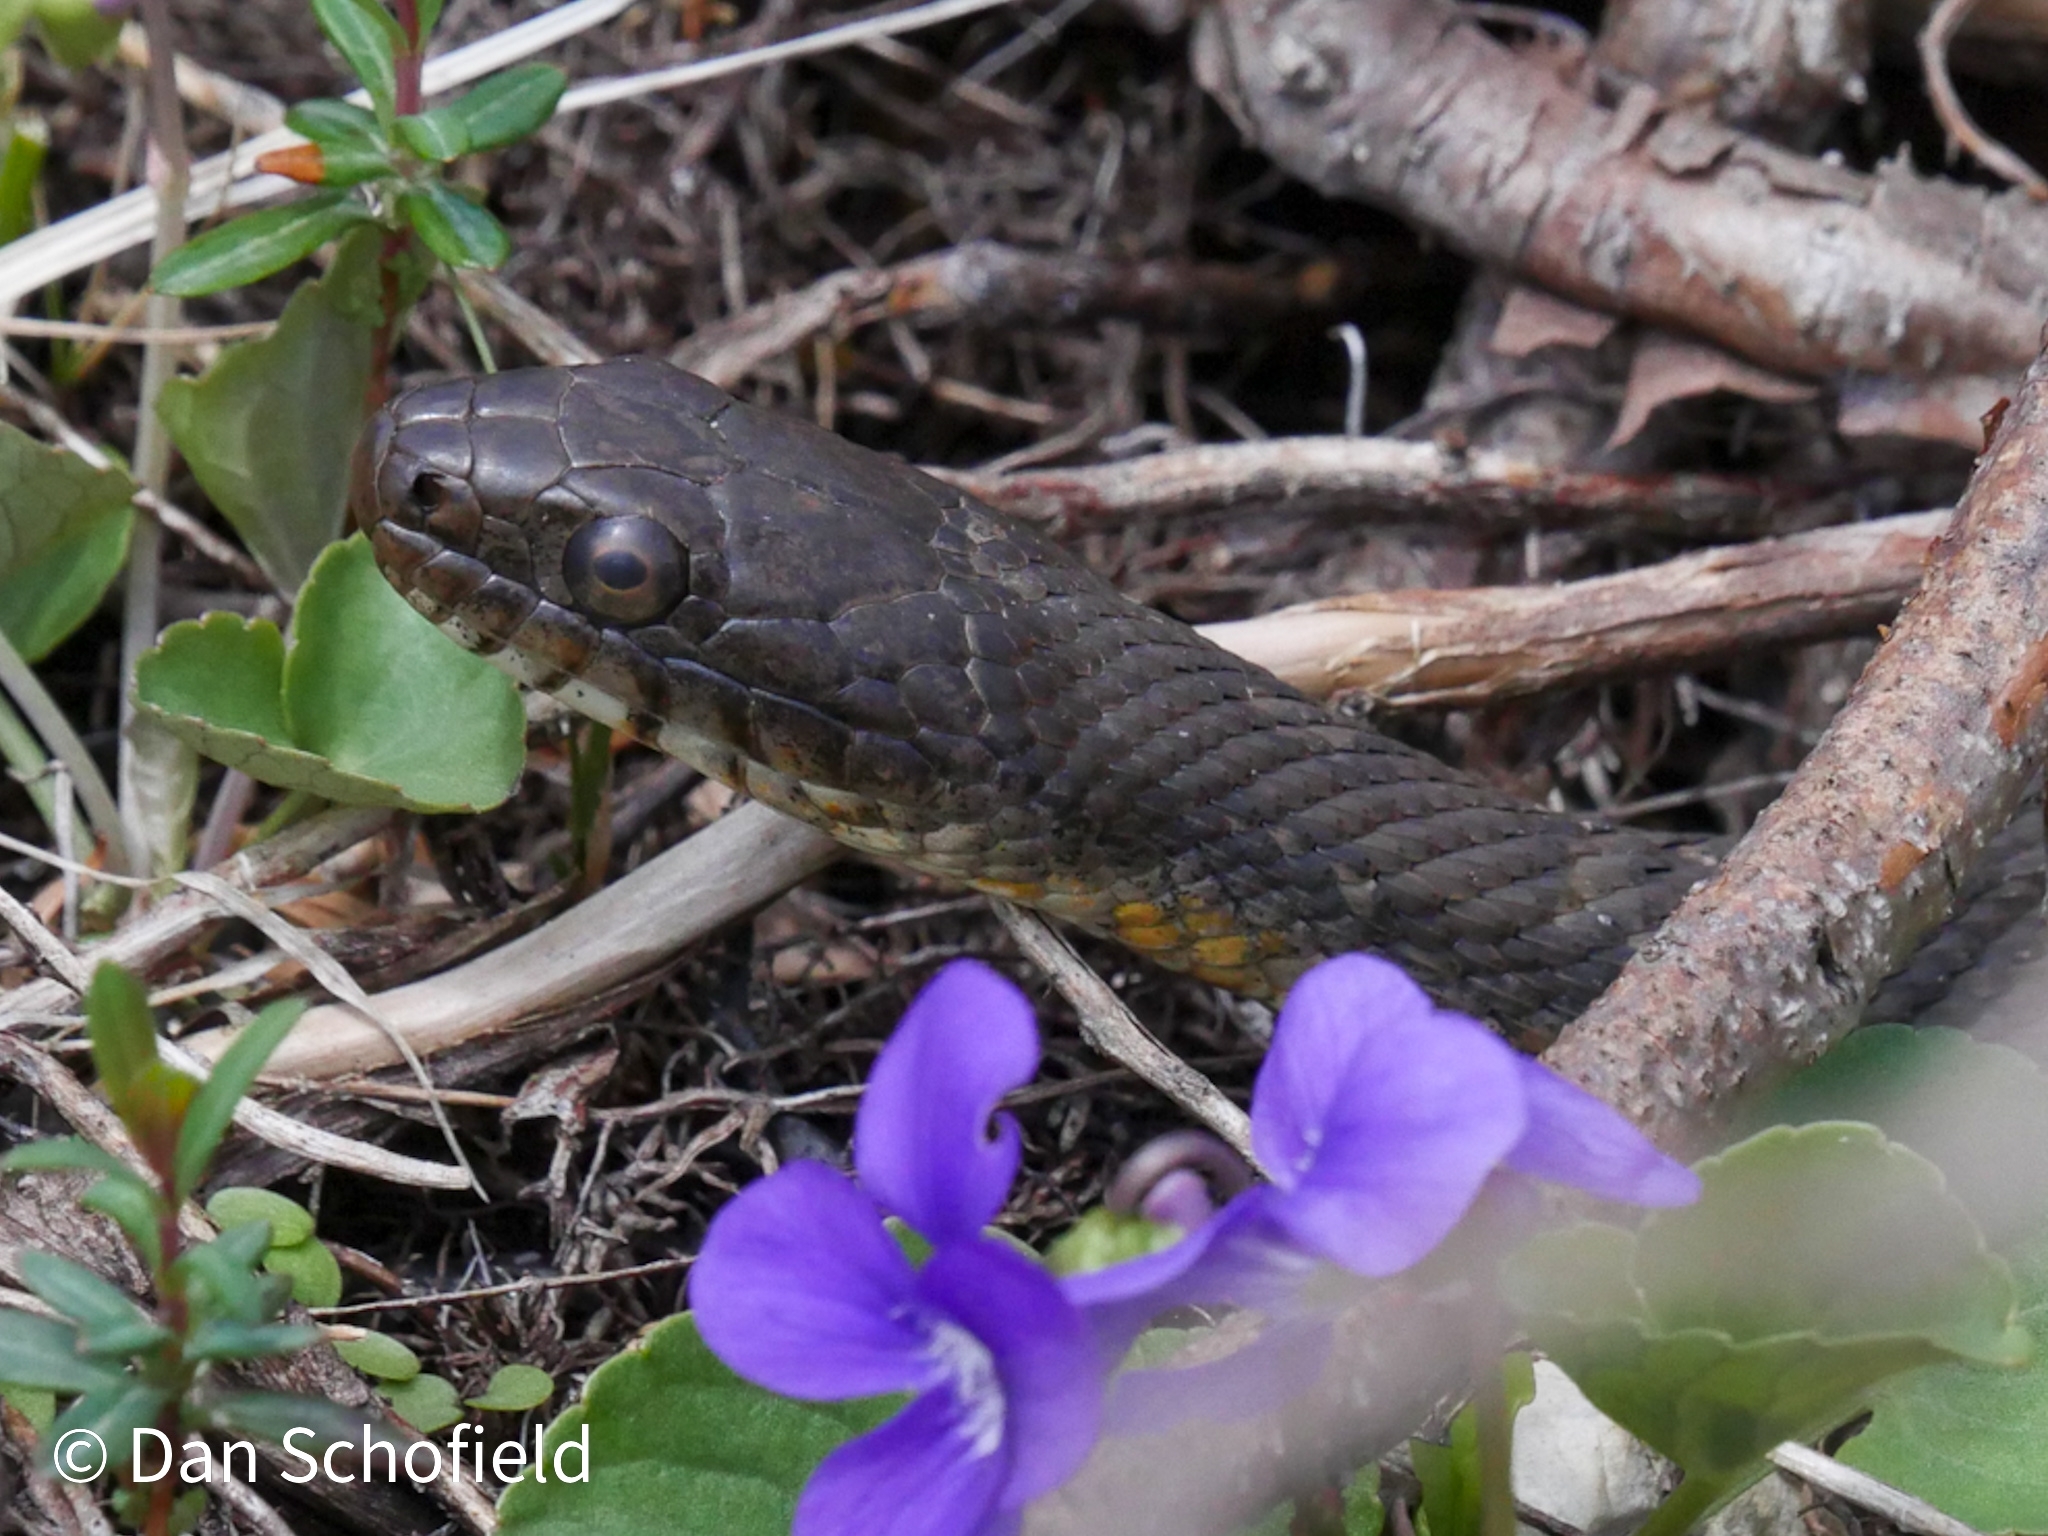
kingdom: Animalia
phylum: Chordata
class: Squamata
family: Colubridae
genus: Nerodia
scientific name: Nerodia sipedon
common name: Northern water snake
